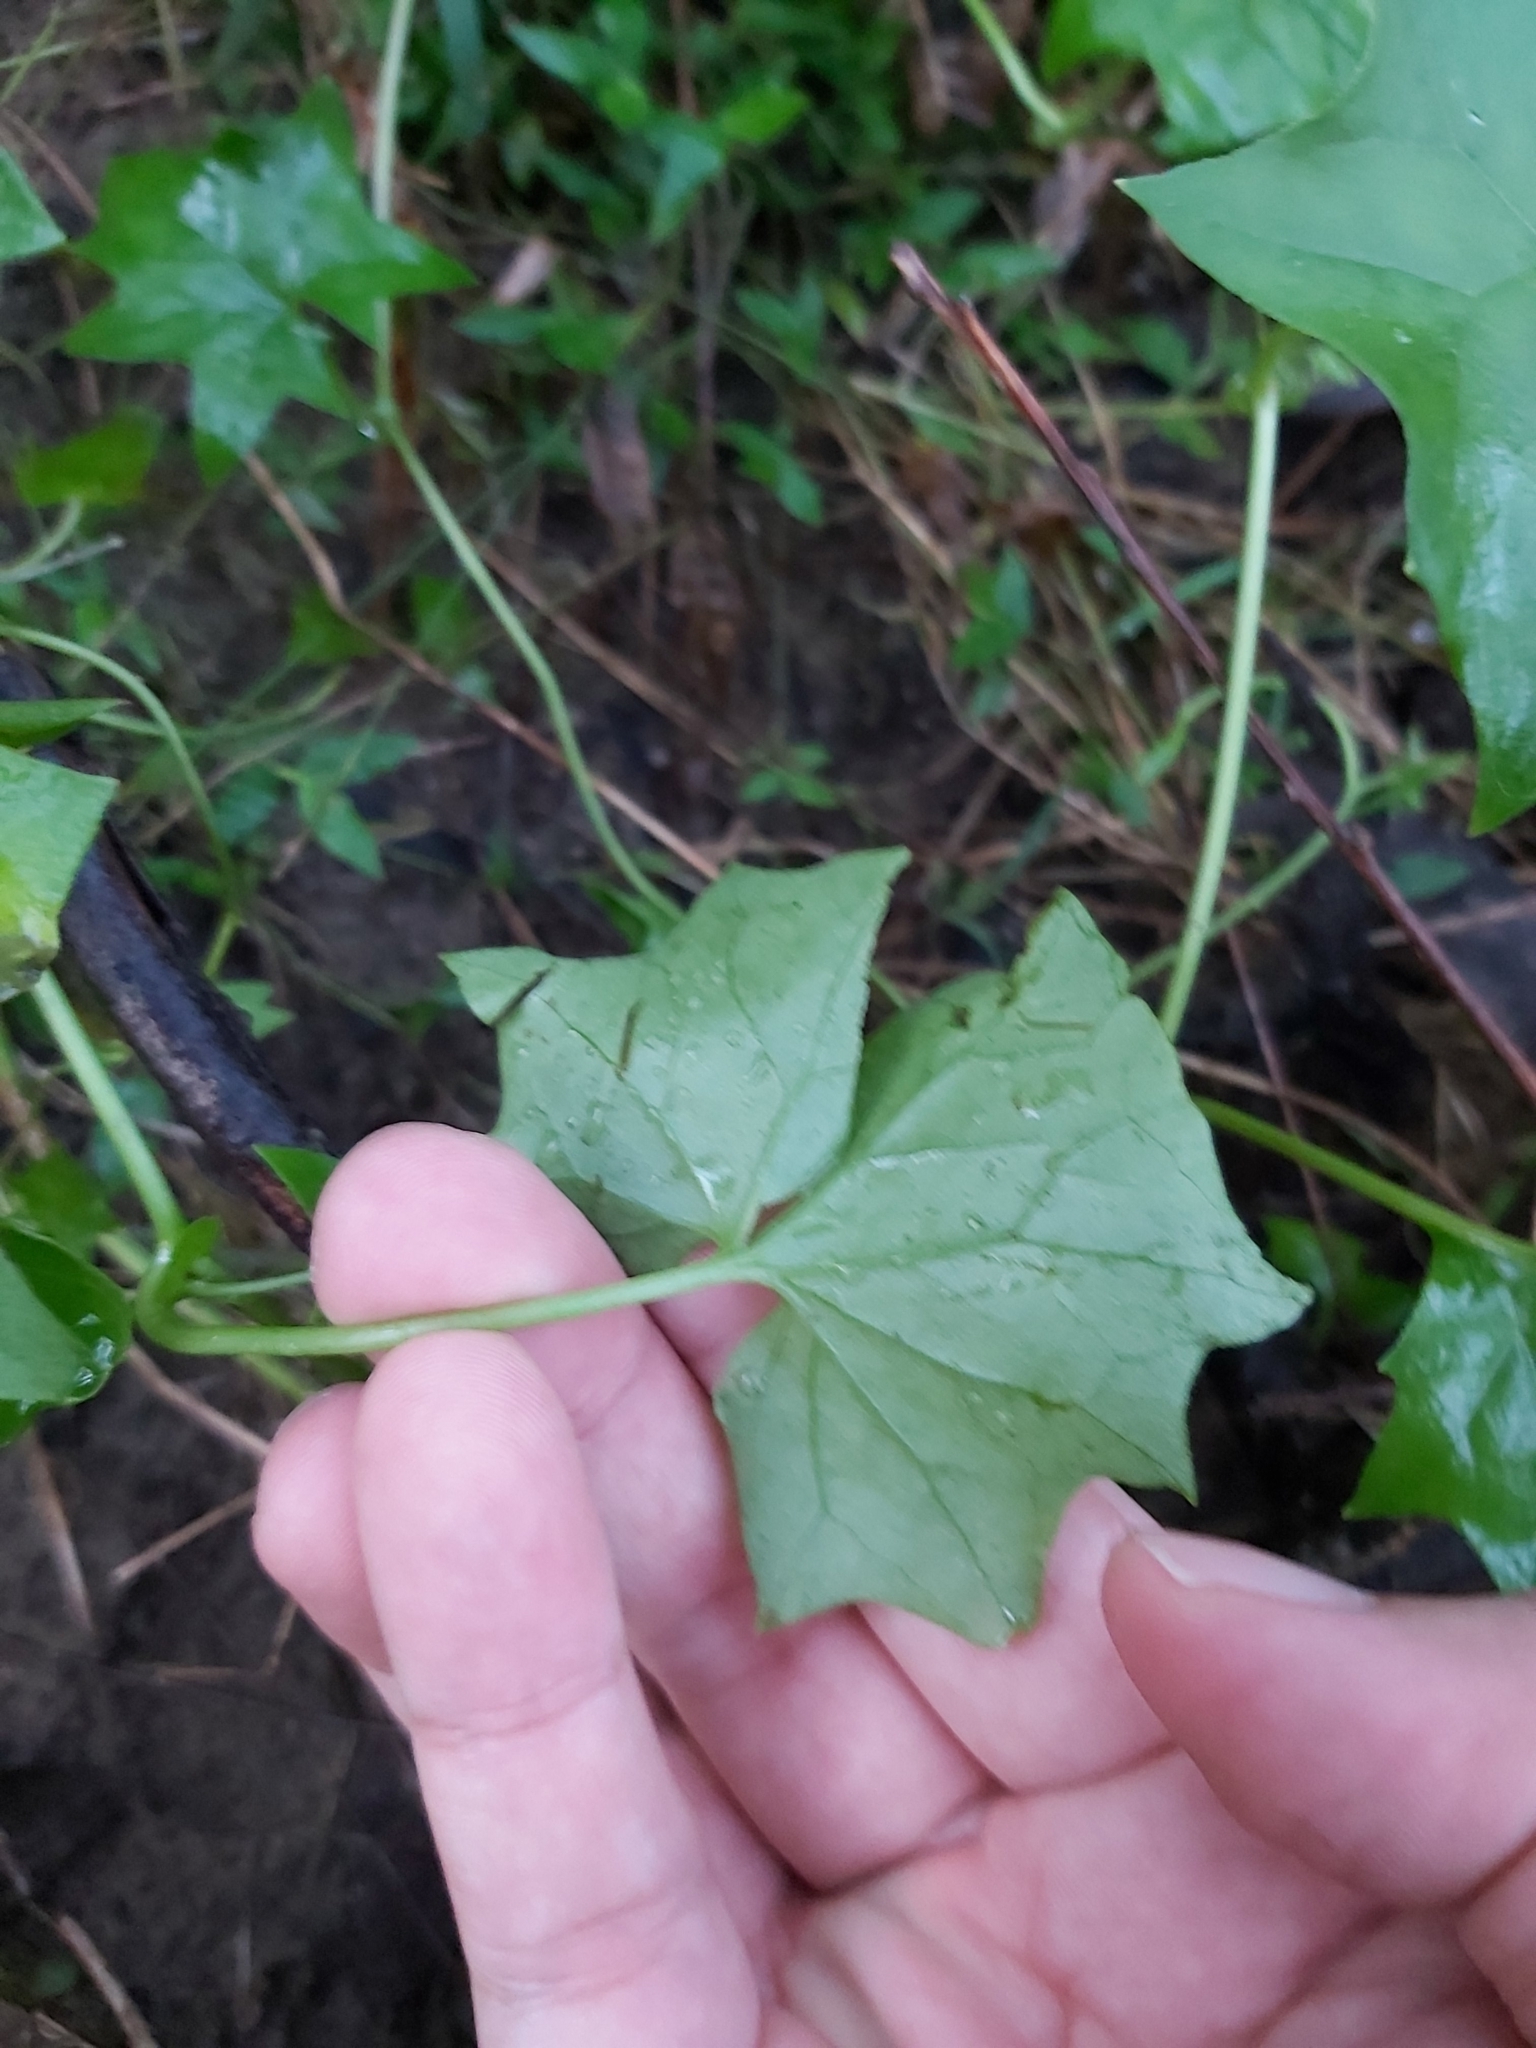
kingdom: Plantae
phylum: Tracheophyta
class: Magnoliopsida
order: Asterales
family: Asteraceae
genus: Delairea
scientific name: Delairea odorata
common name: Cape-ivy
